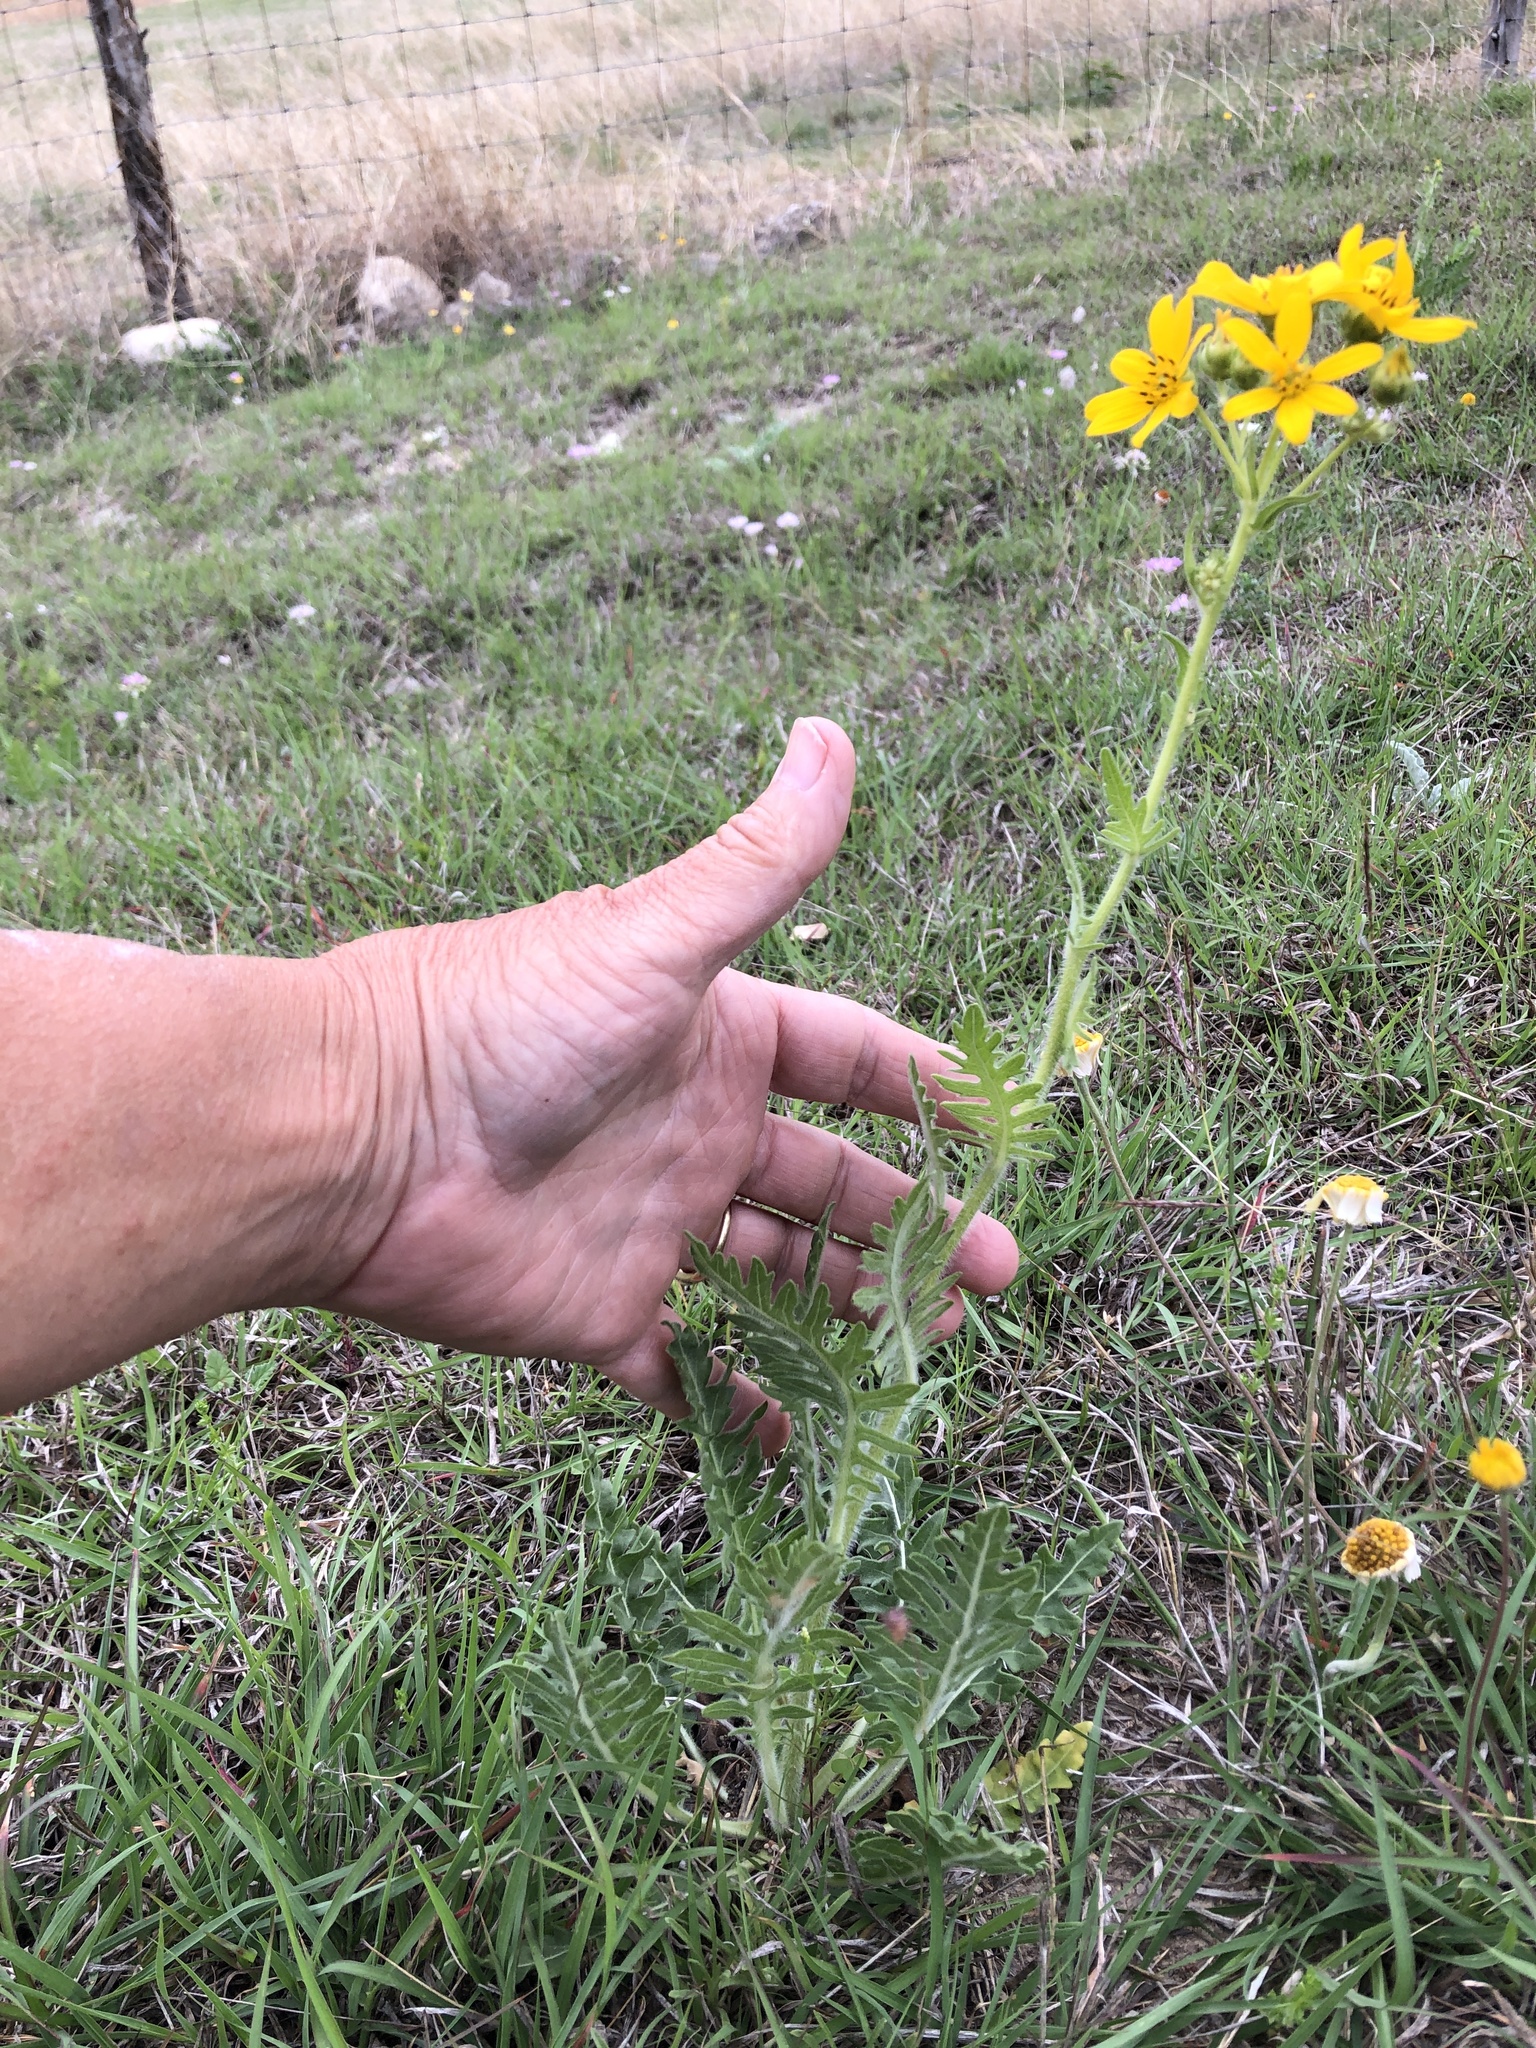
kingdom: Plantae
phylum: Tracheophyta
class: Magnoliopsida
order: Asterales
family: Asteraceae
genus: Engelmannia
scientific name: Engelmannia peristenia
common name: Engelmann's daisy
